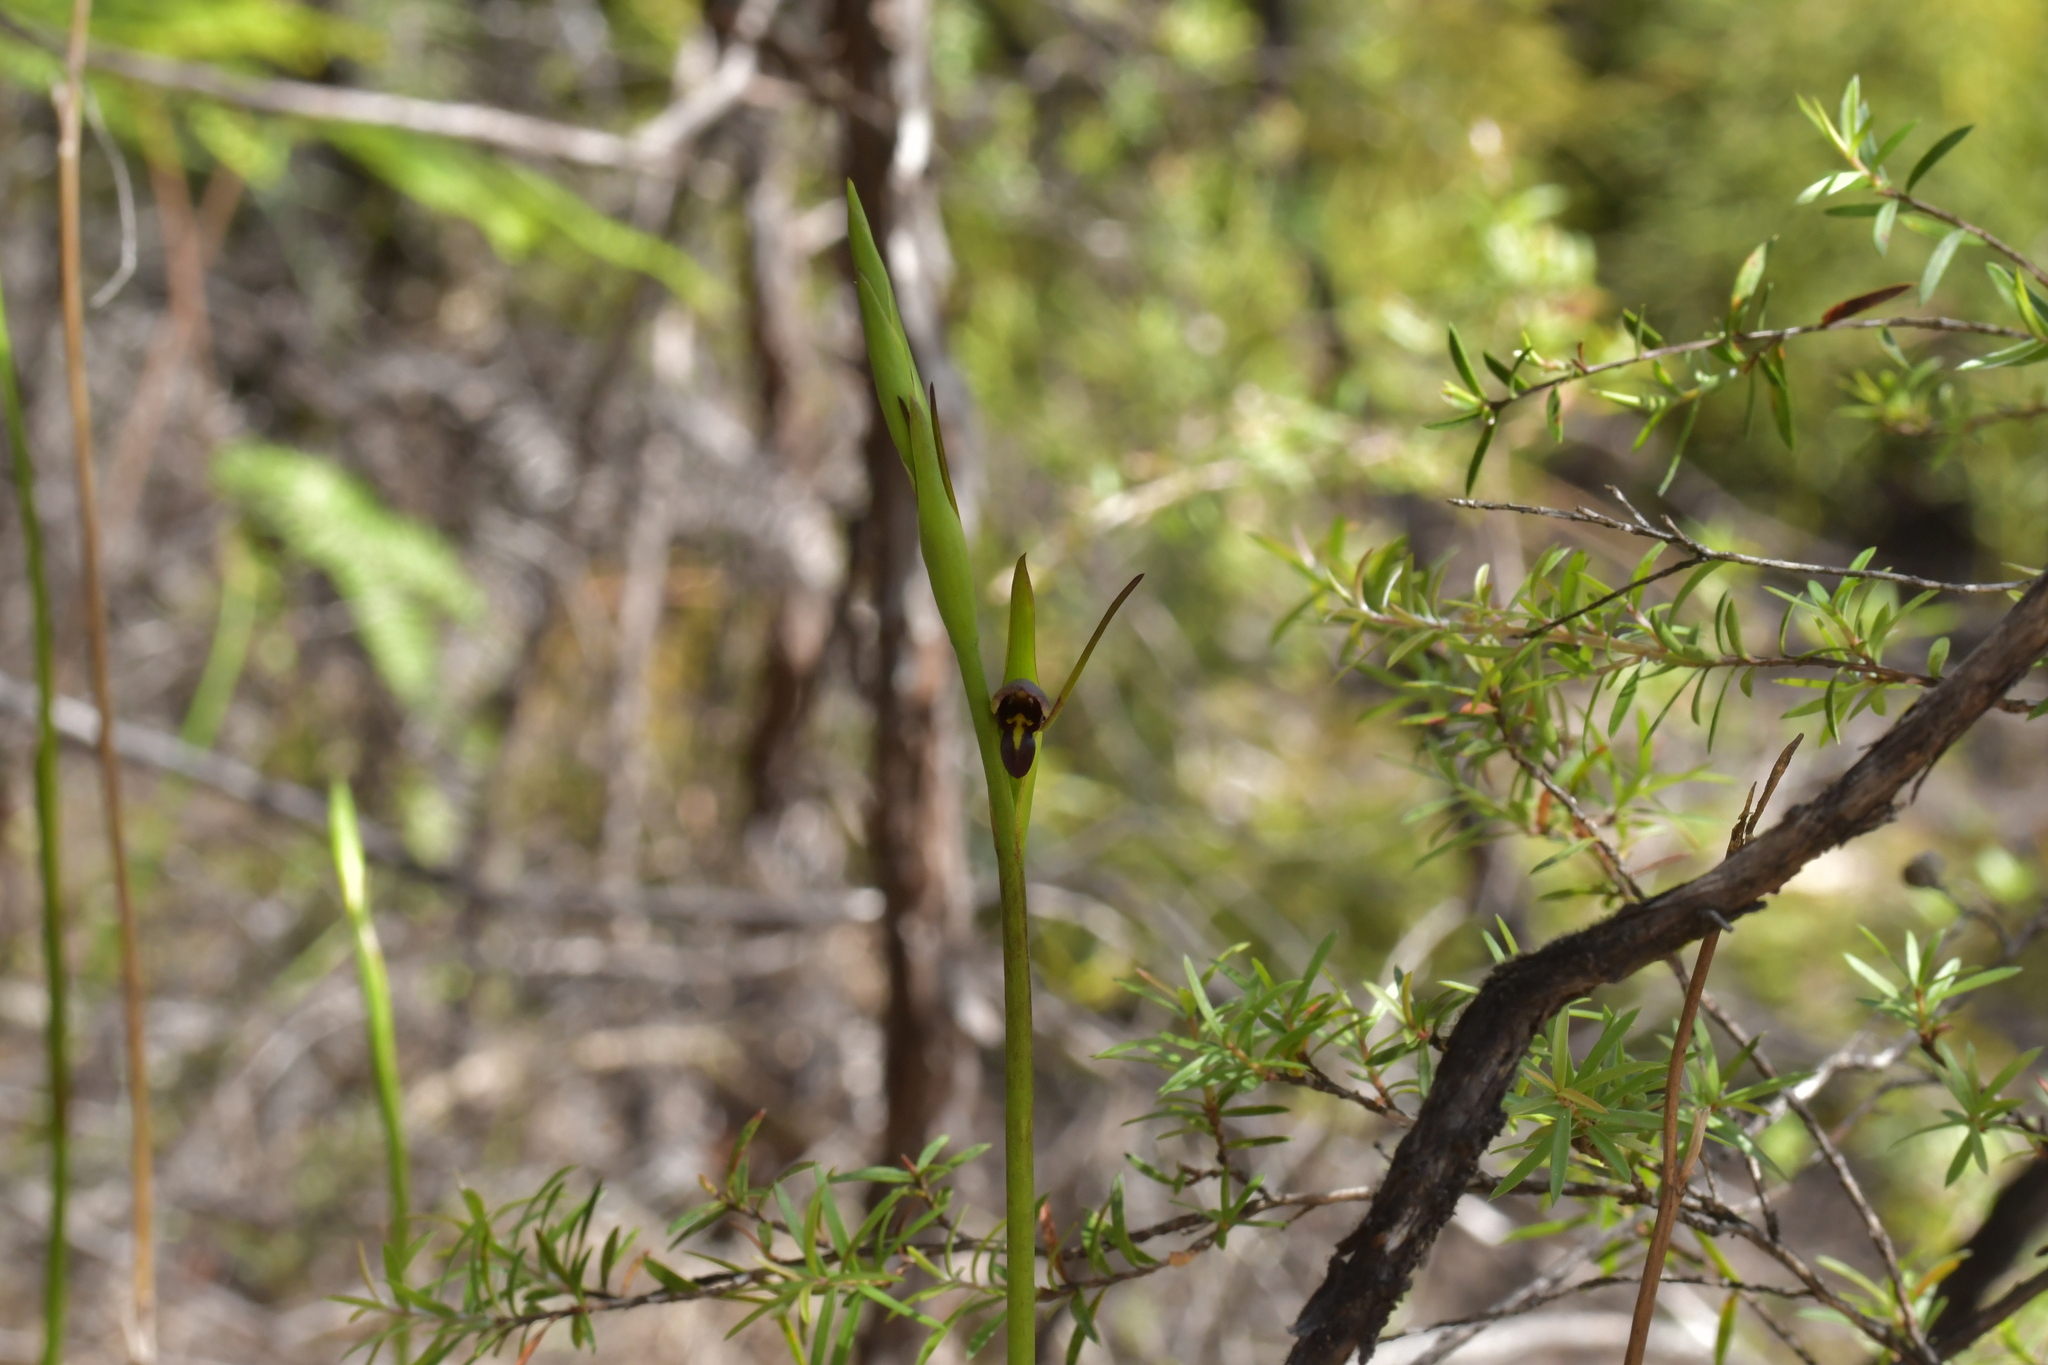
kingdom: Plantae
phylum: Tracheophyta
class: Liliopsida
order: Asparagales
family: Orchidaceae
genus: Orthoceras
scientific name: Orthoceras novae-zeelandiae
